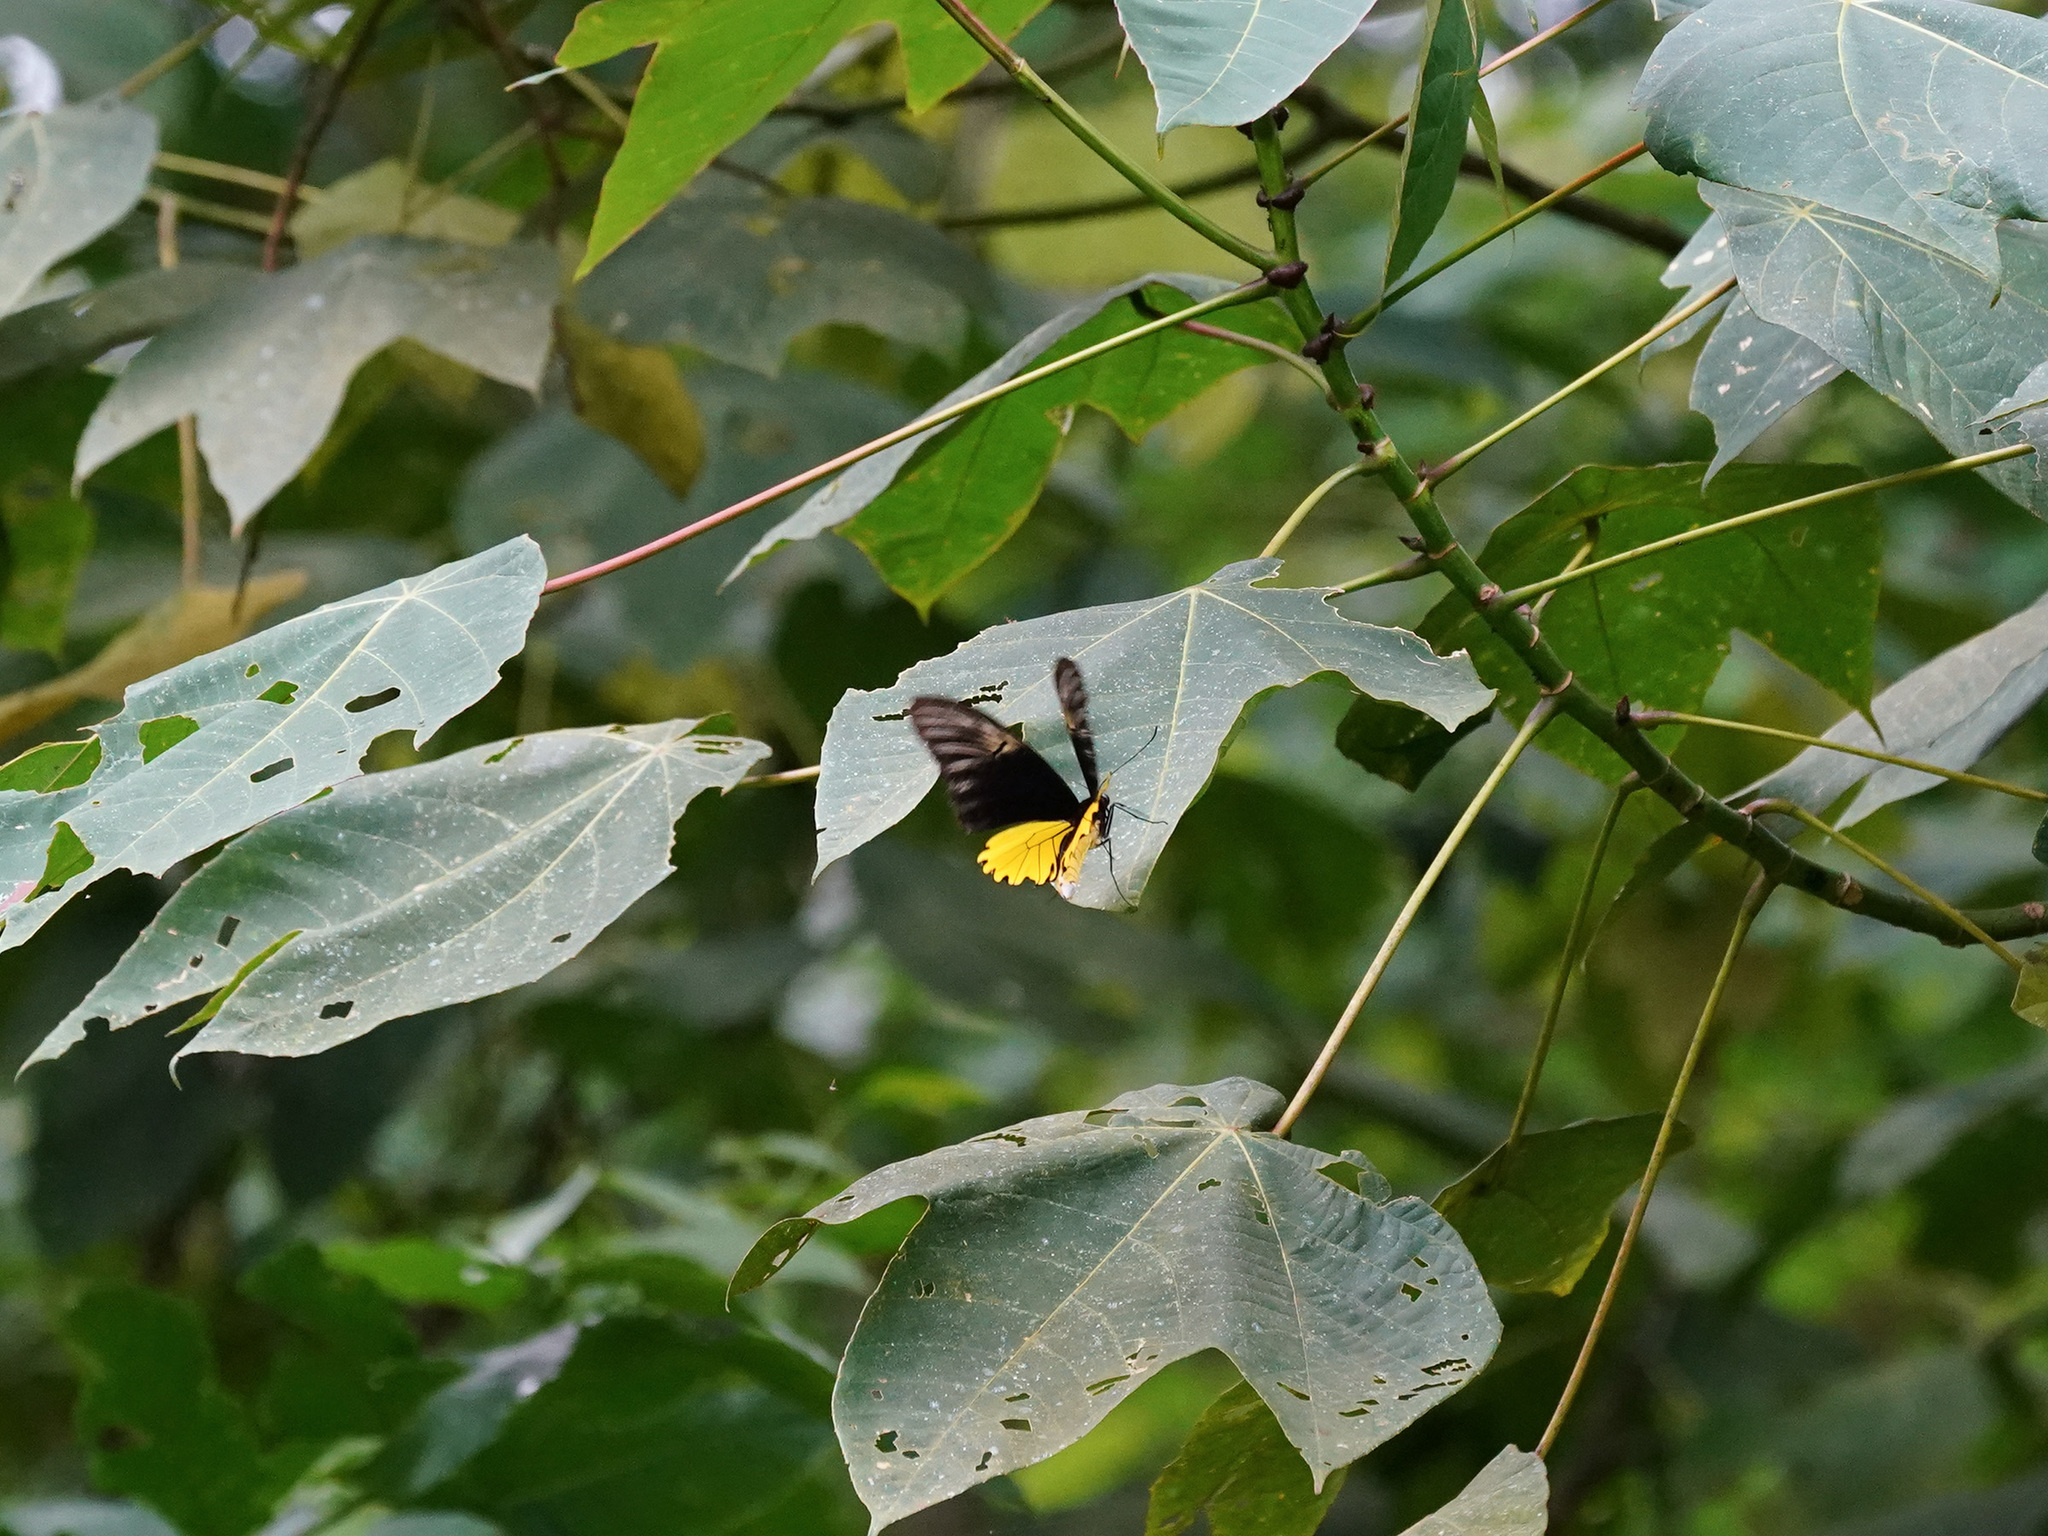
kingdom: Animalia
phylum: Arthropoda
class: Insecta
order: Lepidoptera
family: Papilionidae
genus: Troides
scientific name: Troides amphrysus
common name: Malay birdwing
